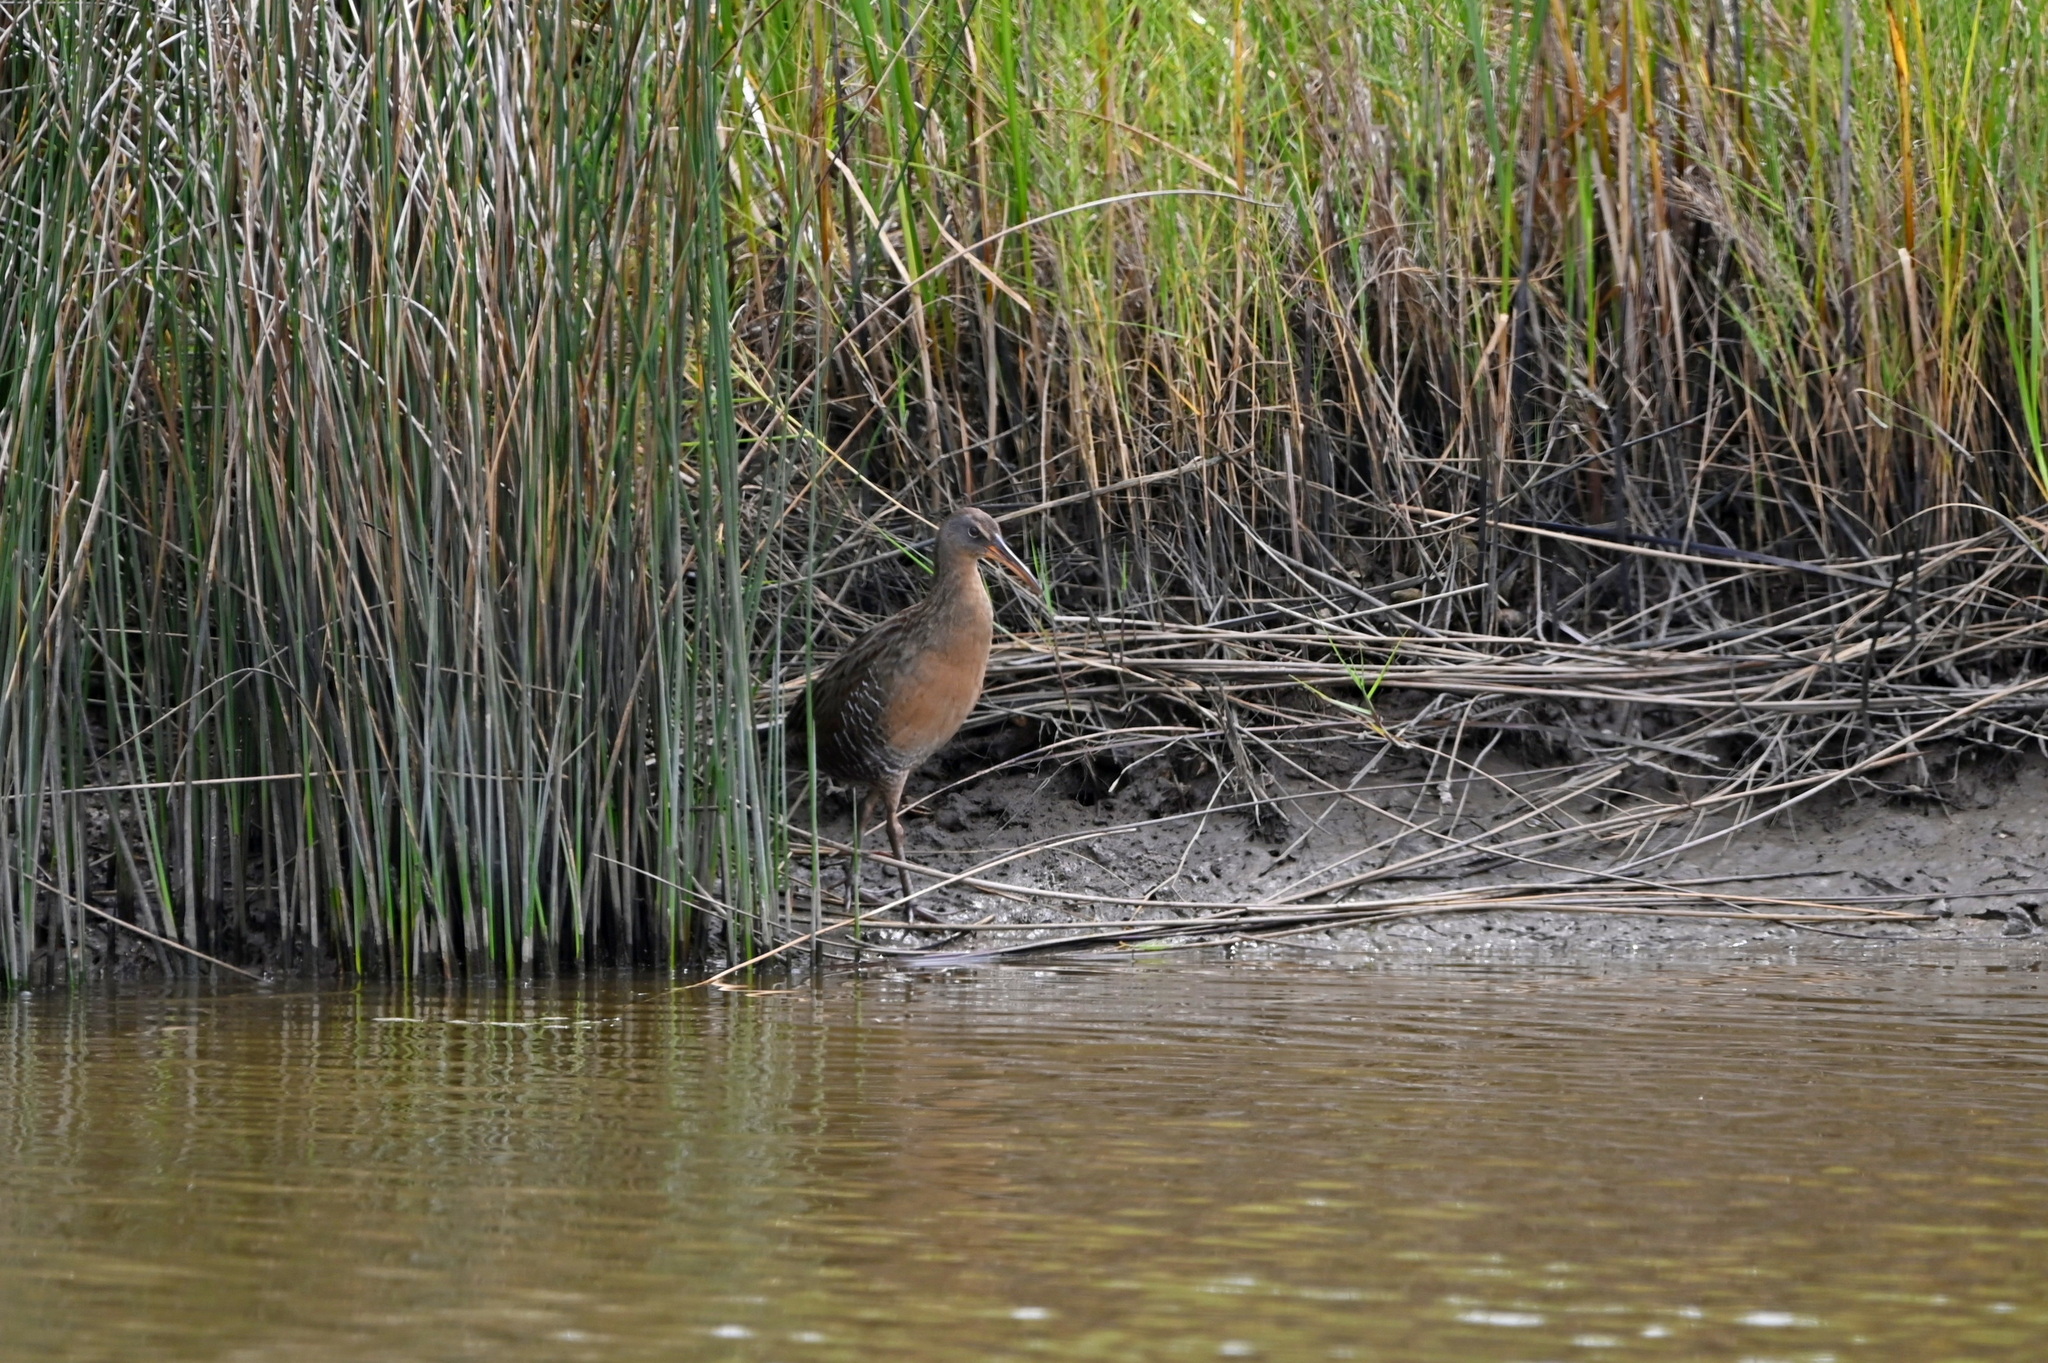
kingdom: Animalia
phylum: Chordata
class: Aves
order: Gruiformes
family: Rallidae
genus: Rallus
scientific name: Rallus crepitans
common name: Clapper rail
